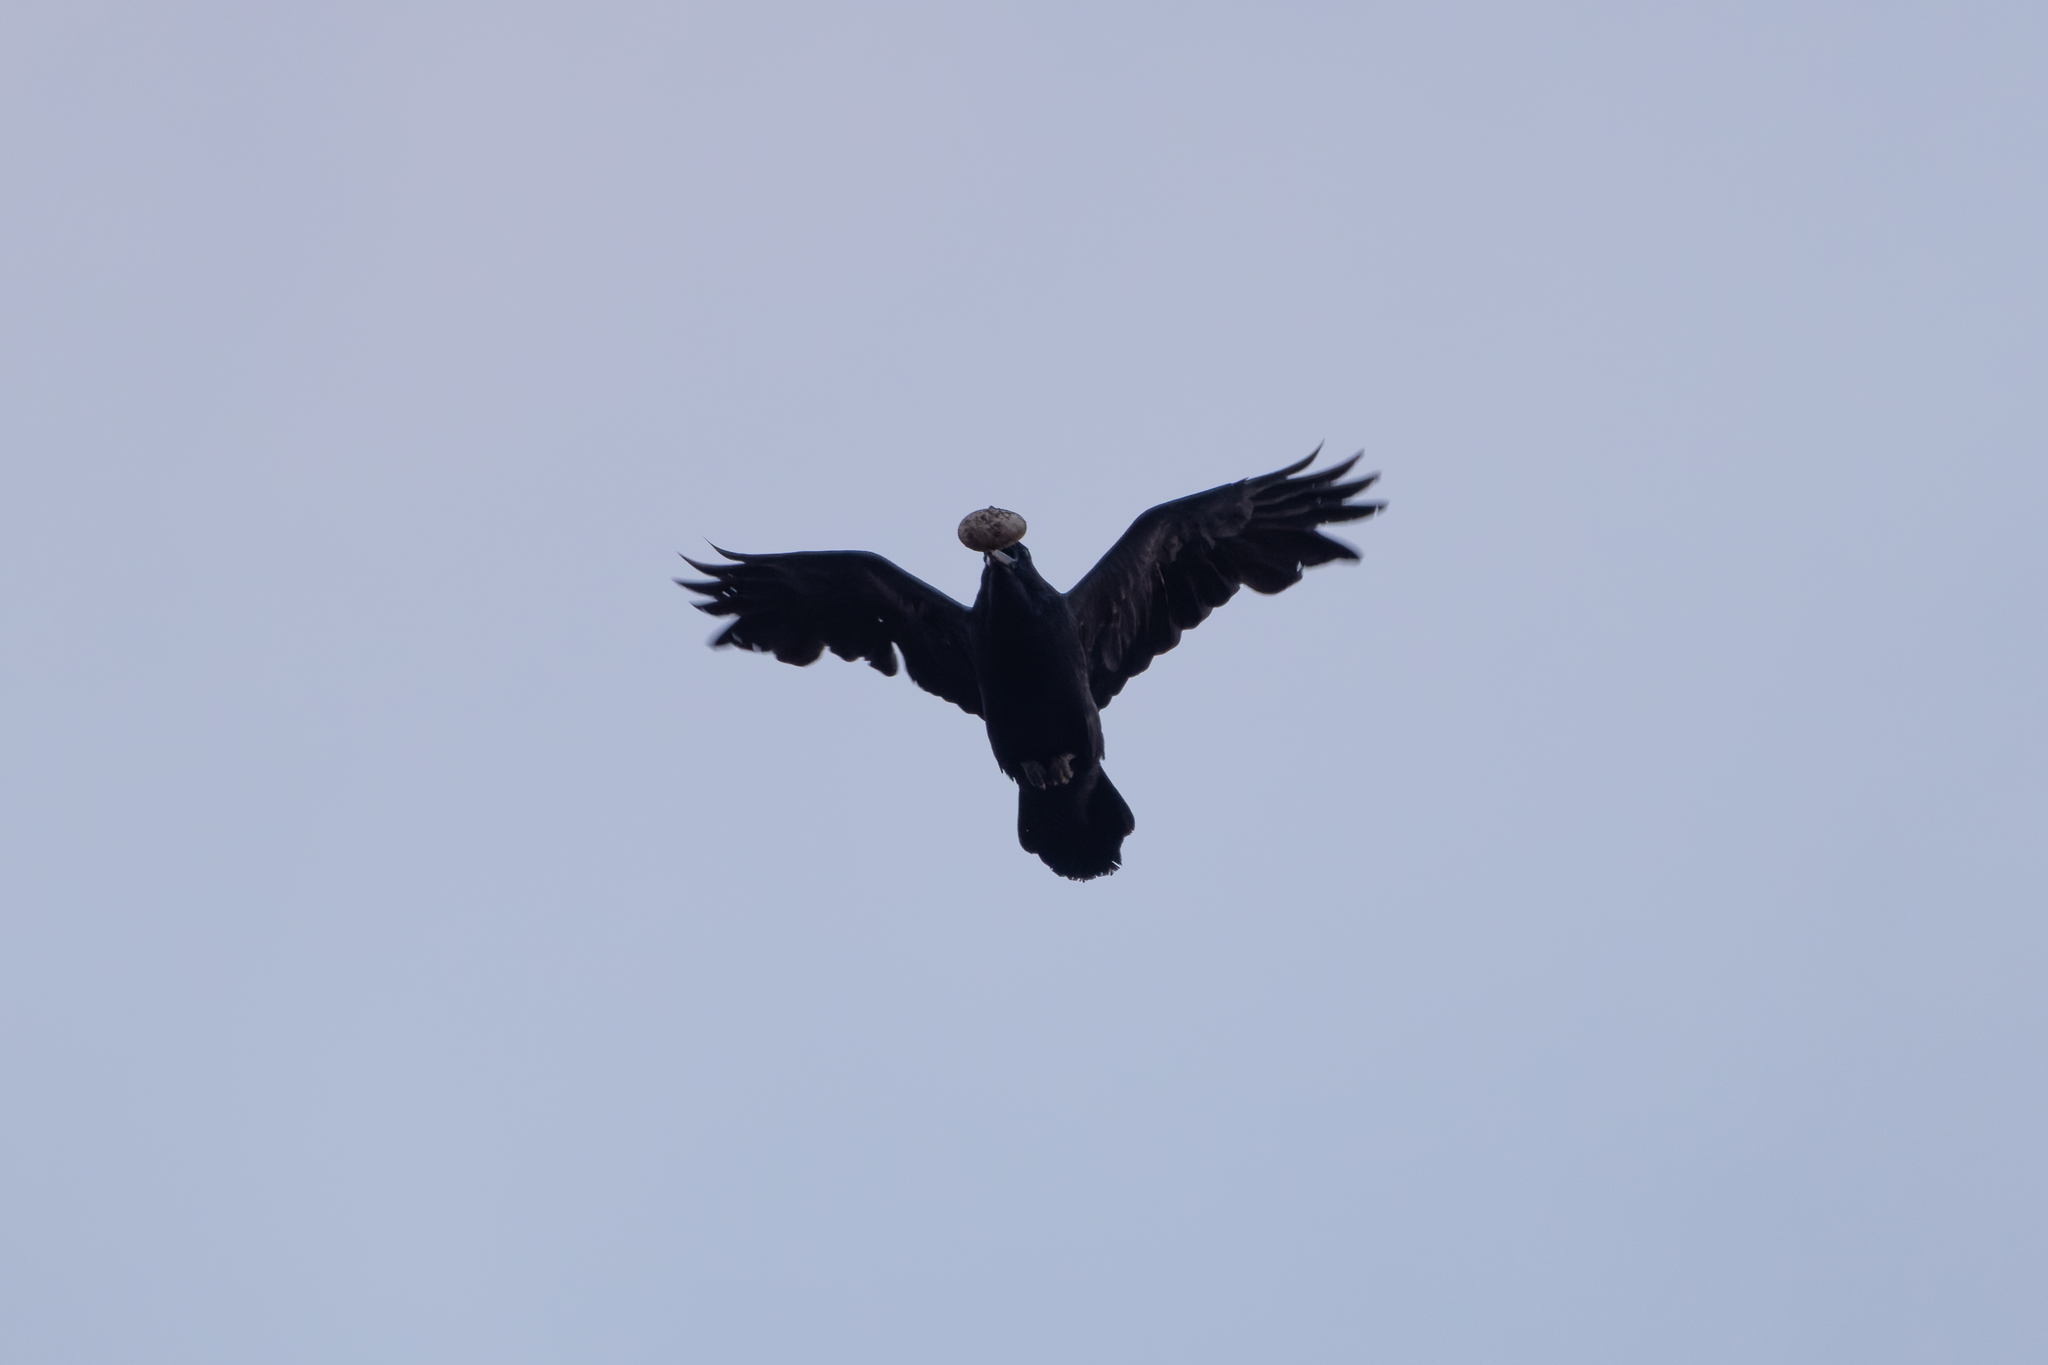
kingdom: Animalia
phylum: Chordata
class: Aves
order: Passeriformes
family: Corvidae
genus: Corvus
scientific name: Corvus corone
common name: Carrion crow
